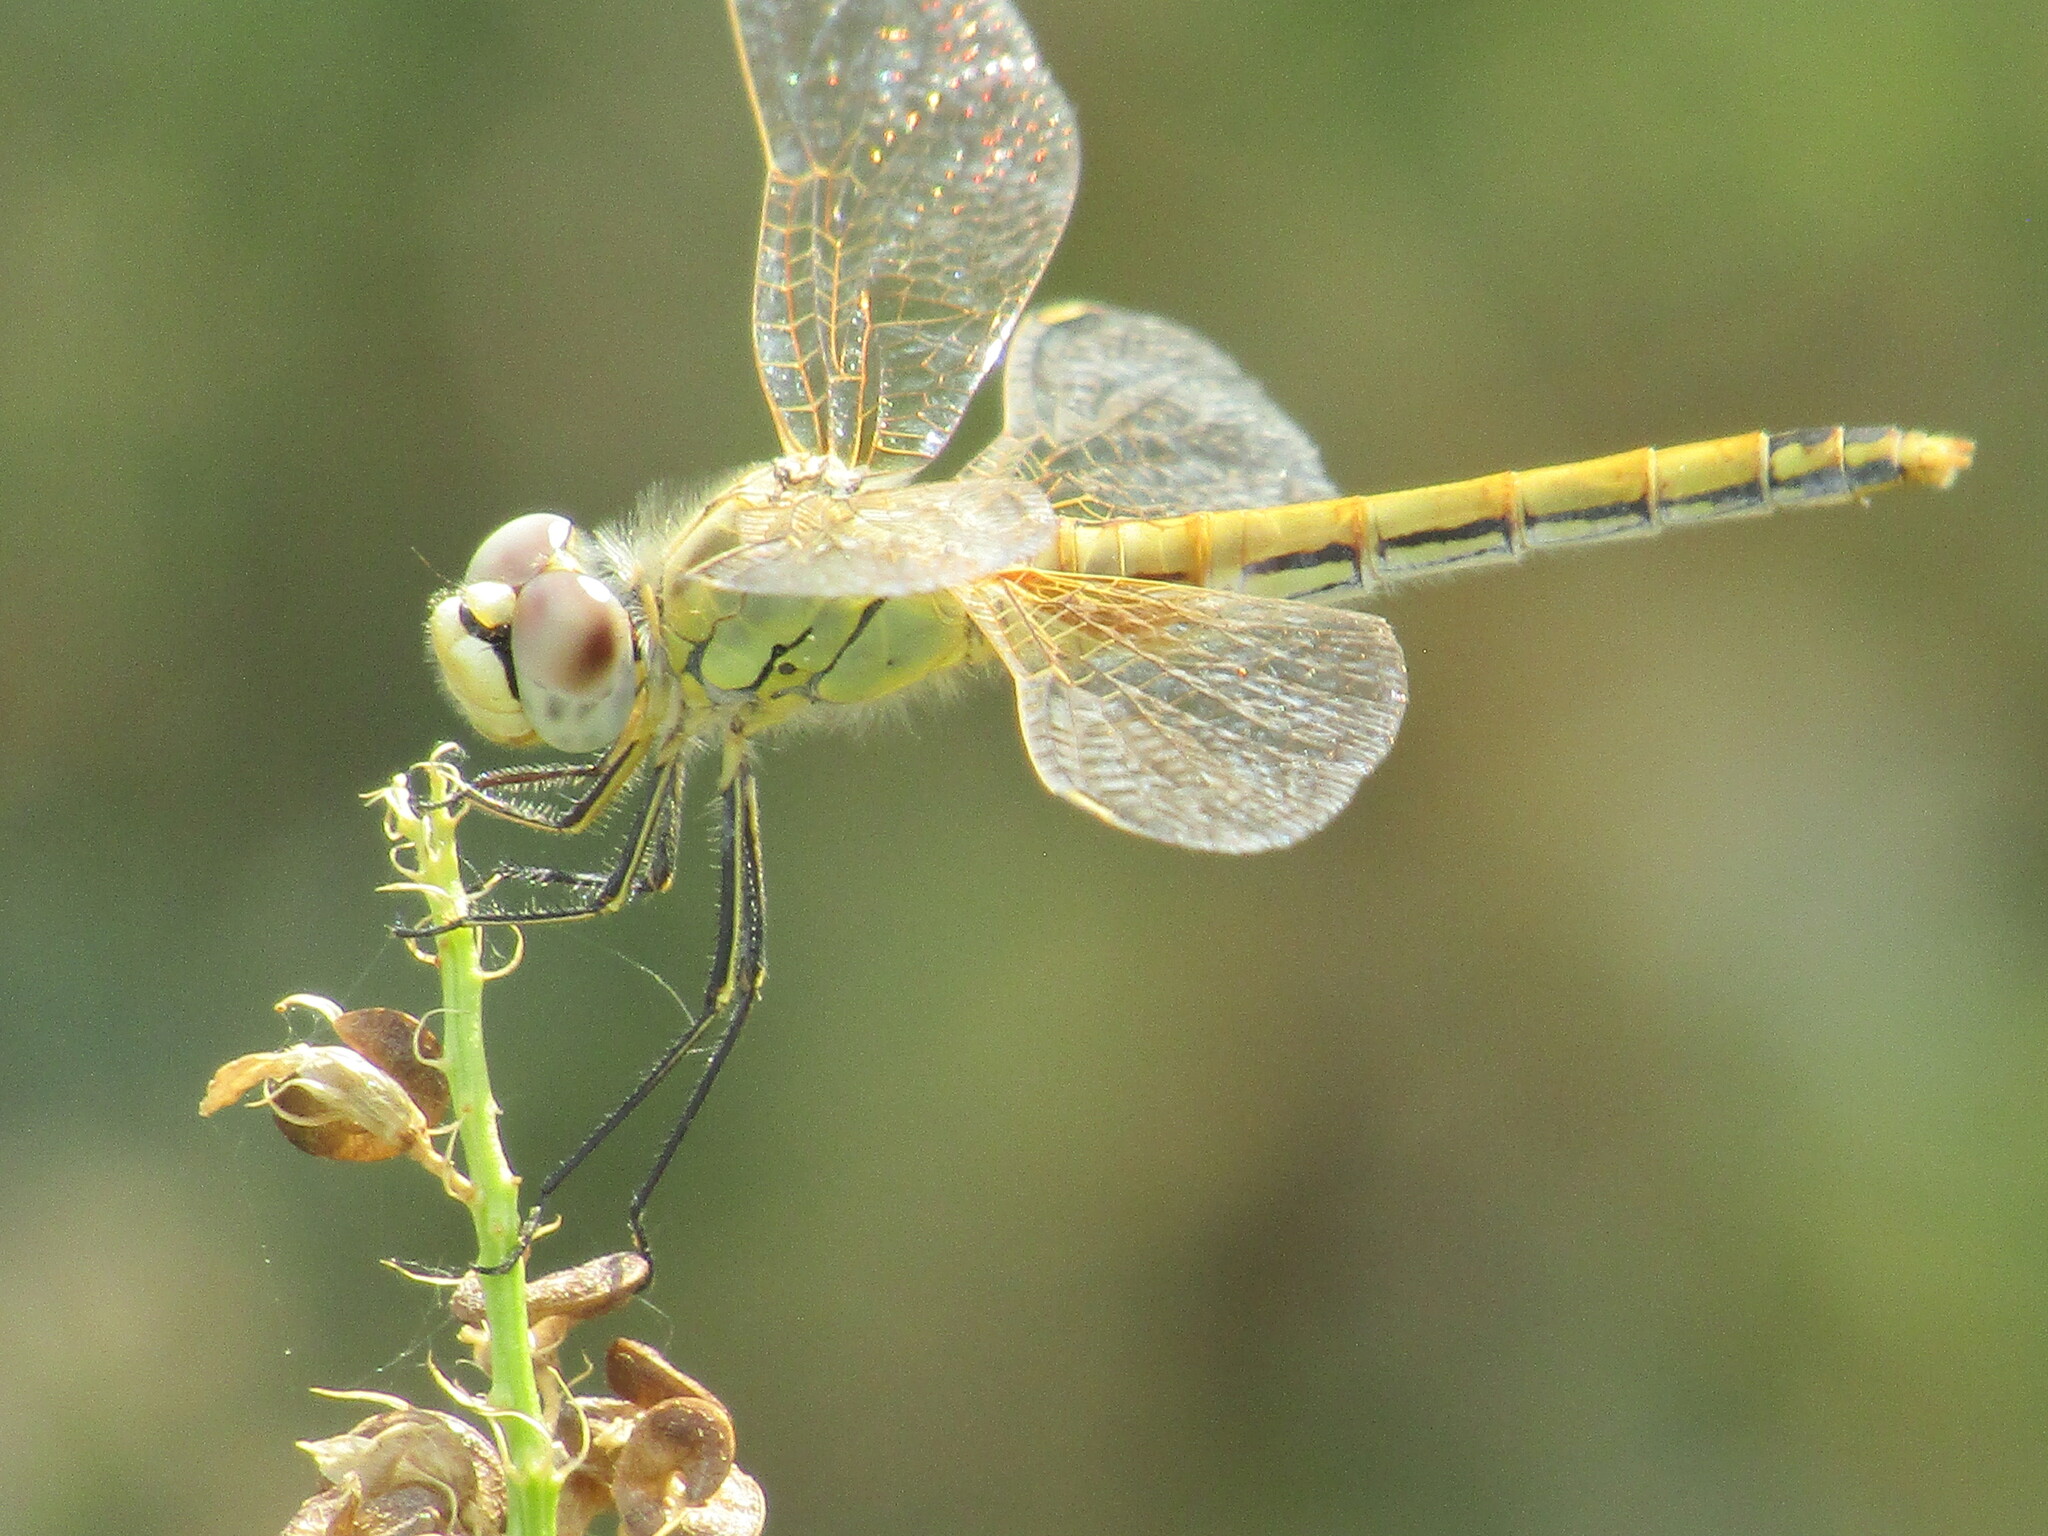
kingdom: Animalia
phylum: Arthropoda
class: Insecta
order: Odonata
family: Libellulidae
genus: Sympetrum
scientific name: Sympetrum fonscolombii
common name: Red-veined darter
